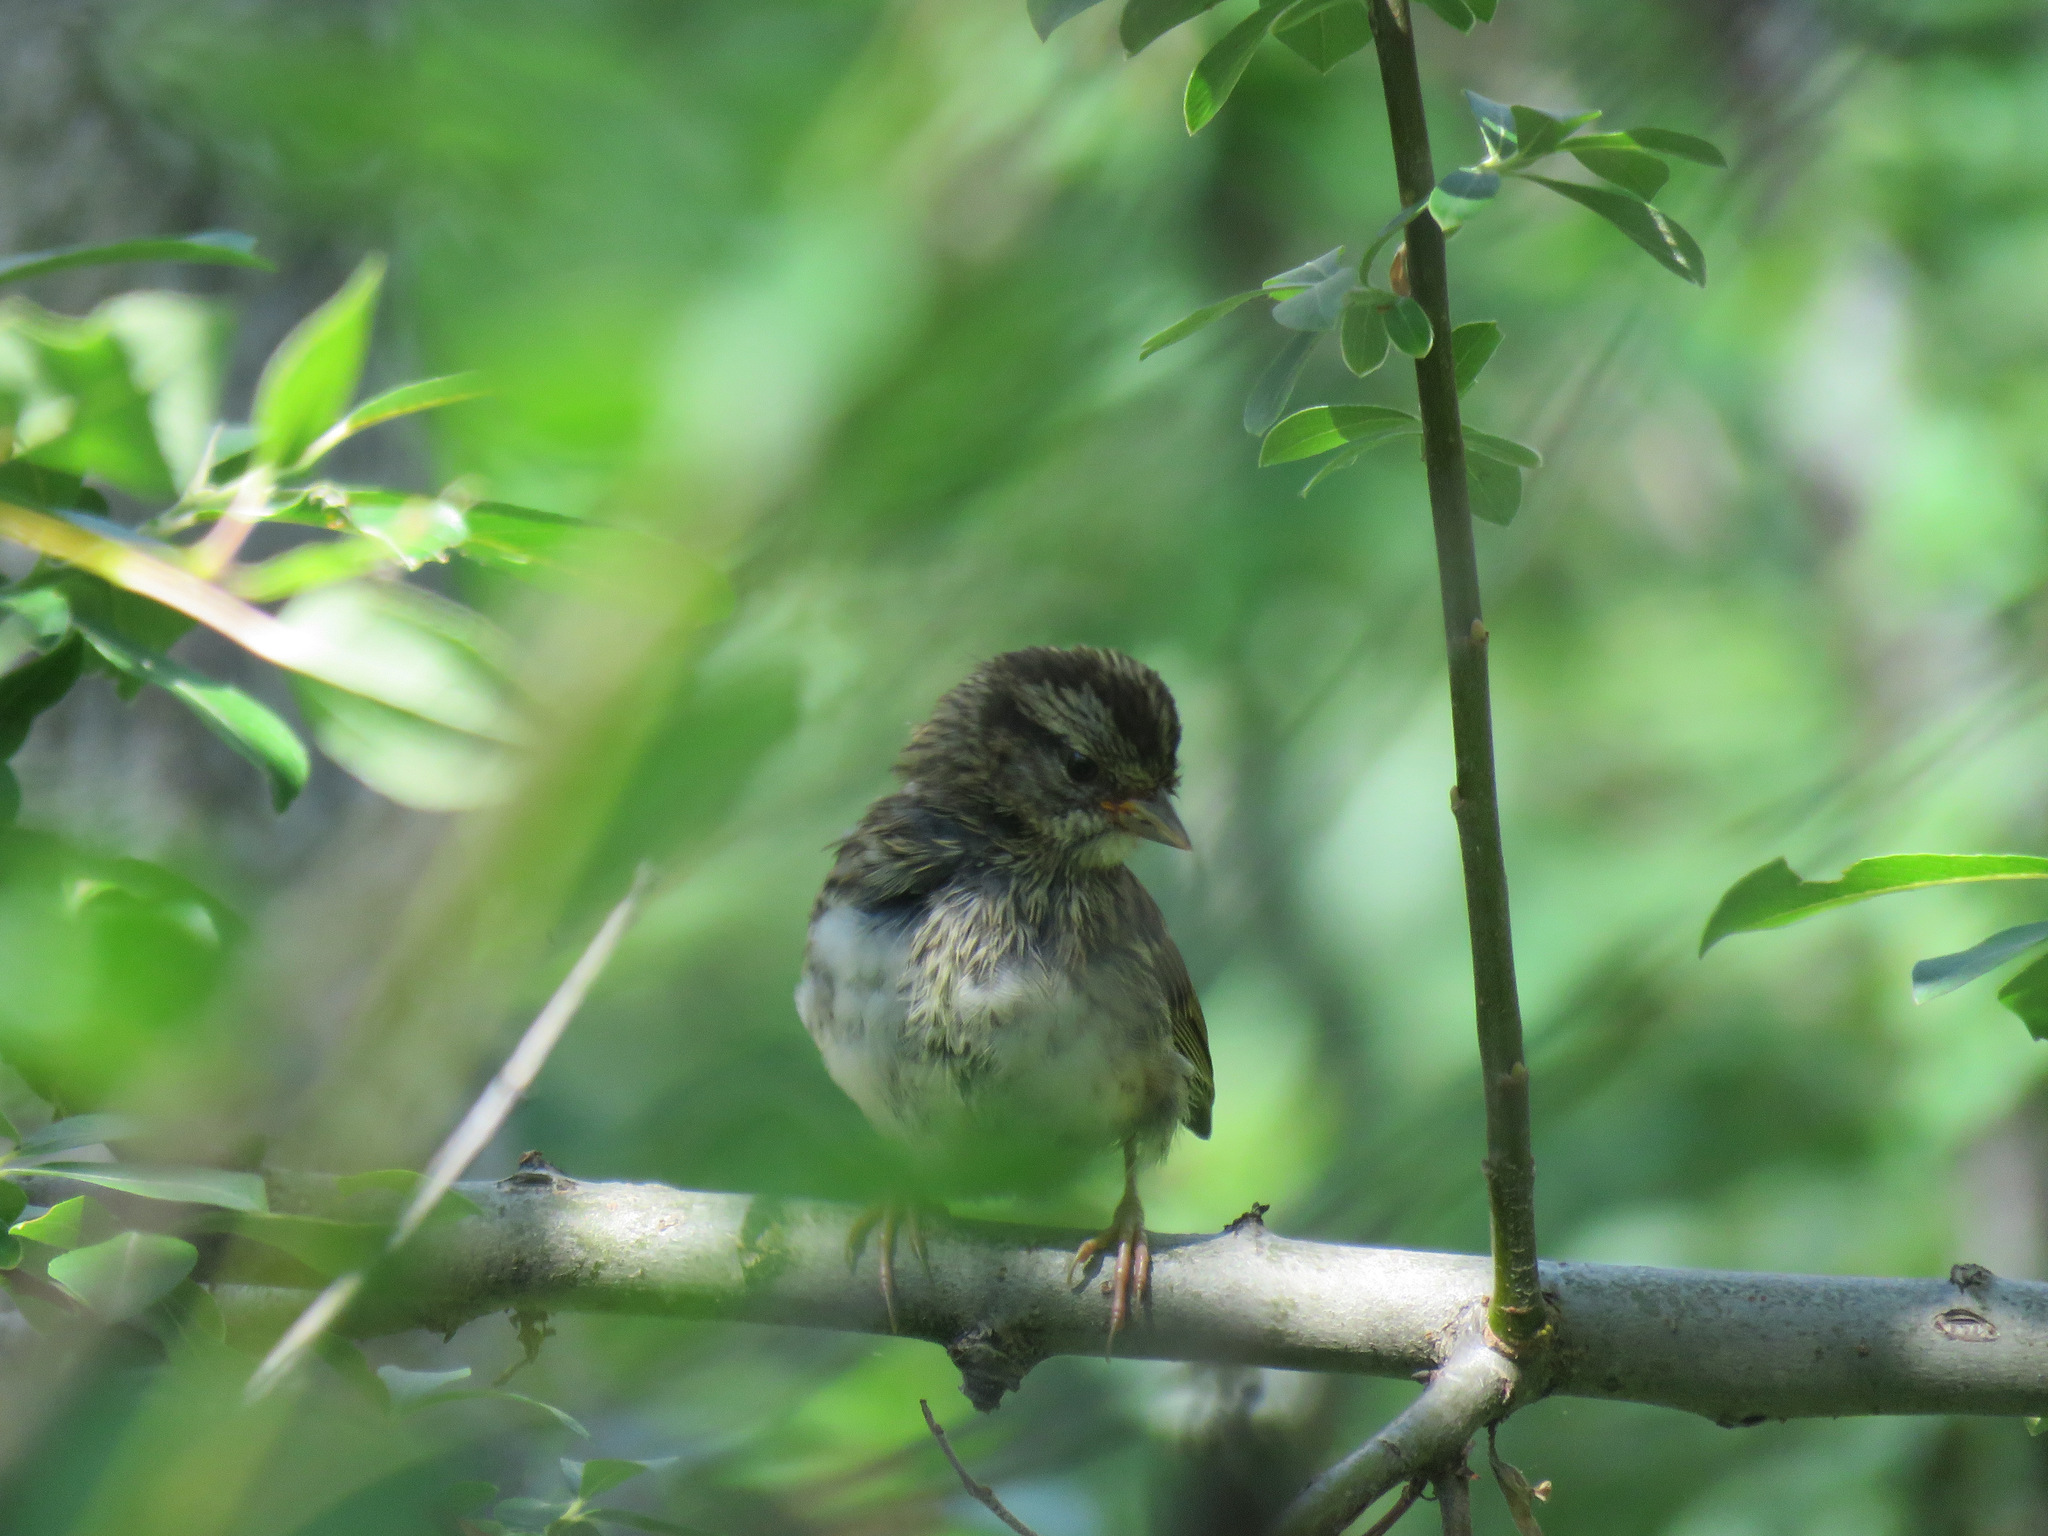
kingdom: Animalia
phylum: Chordata
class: Aves
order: Passeriformes
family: Passerellidae
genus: Zonotrichia
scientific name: Zonotrichia albicollis
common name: White-throated sparrow
